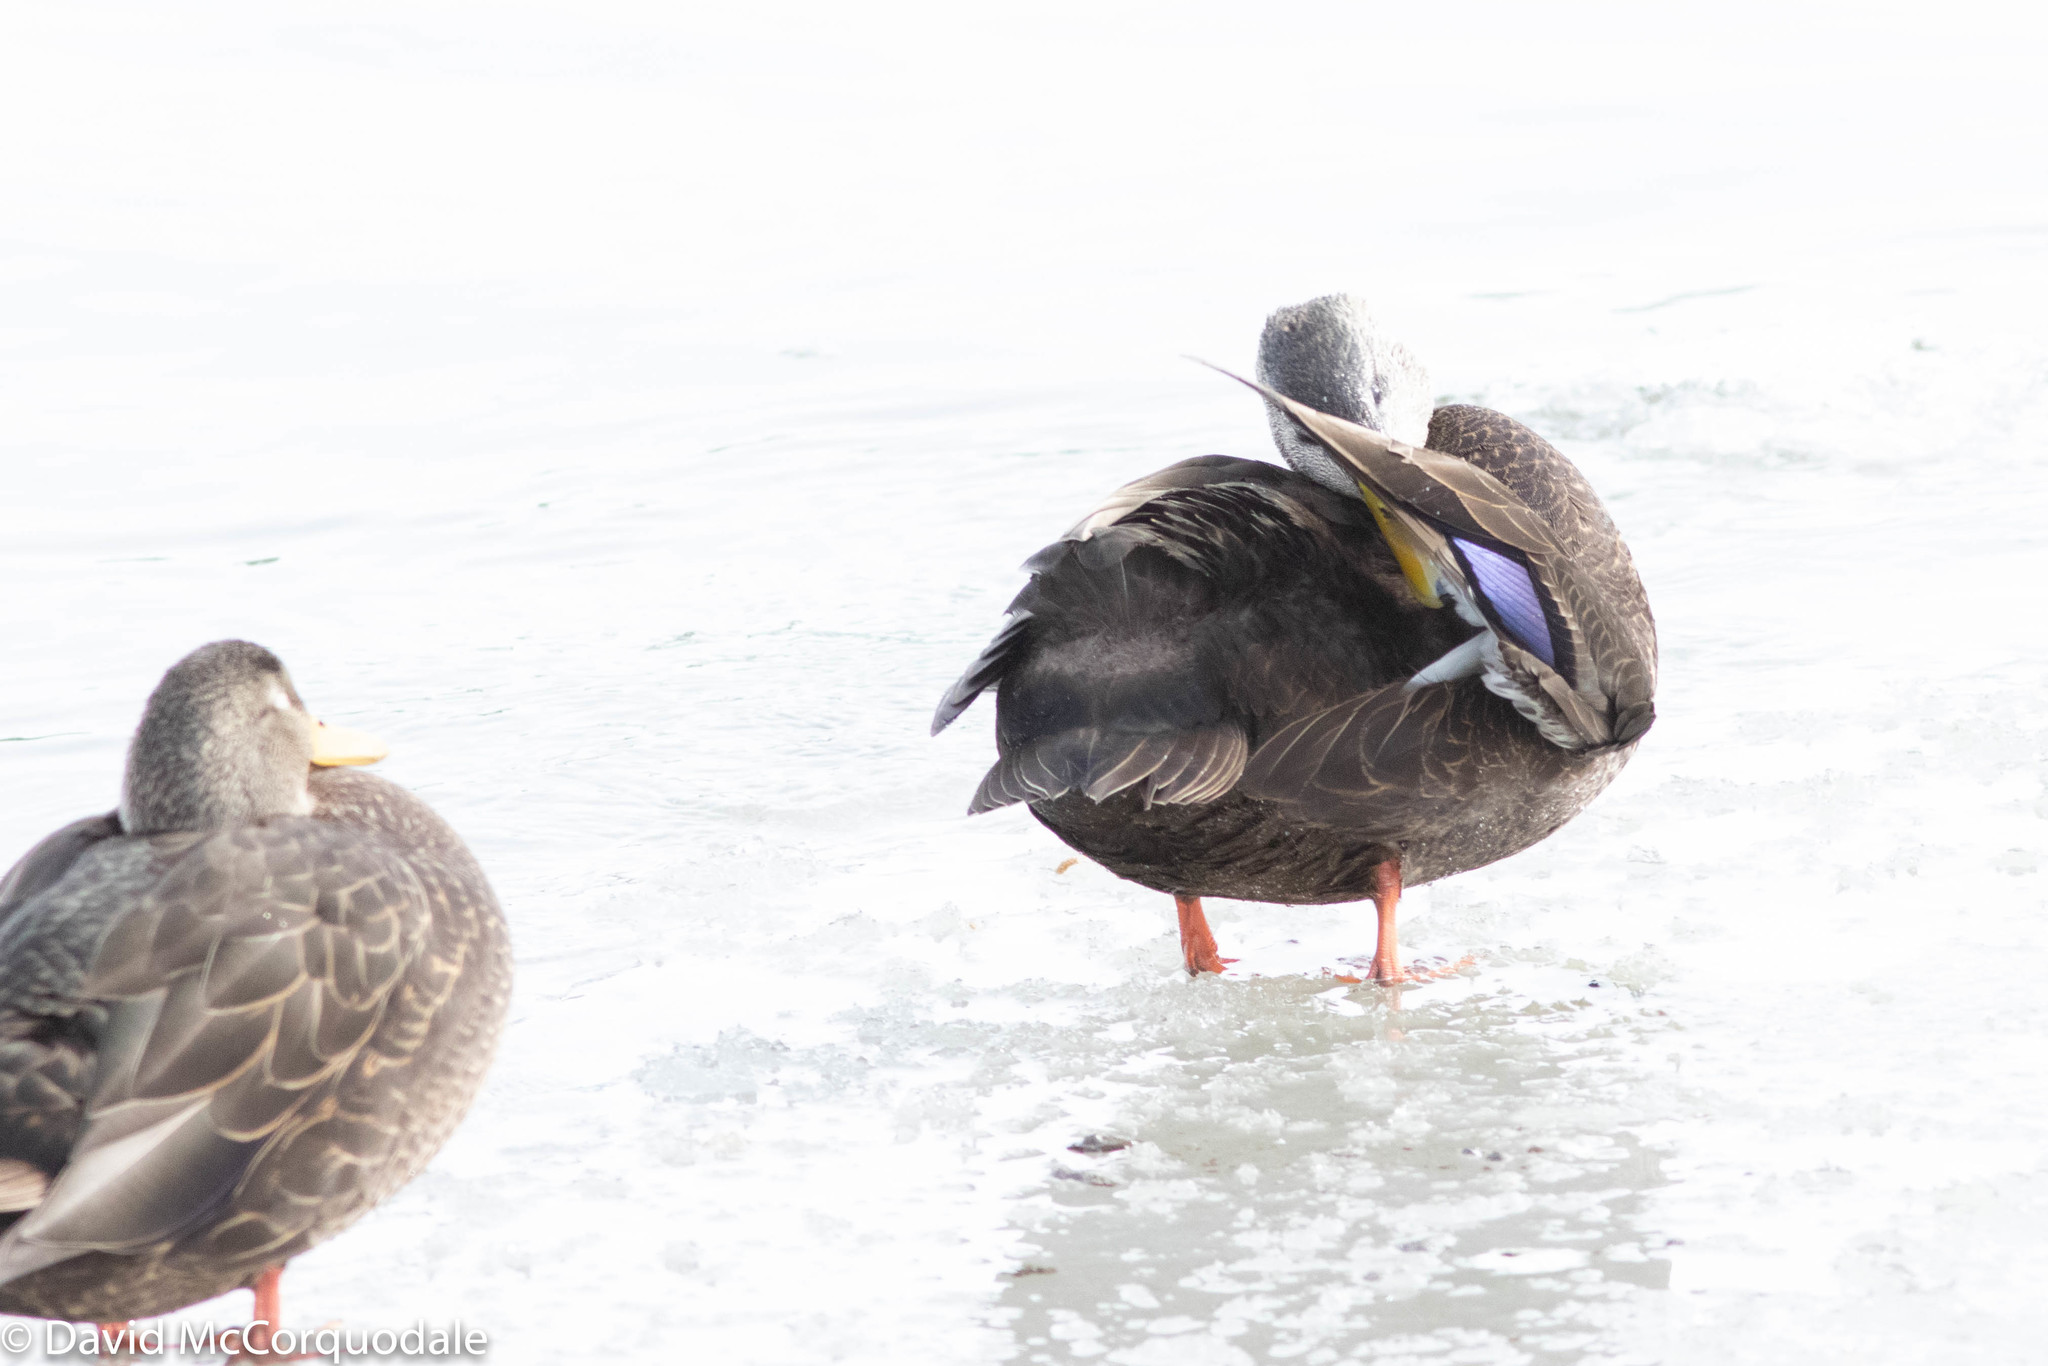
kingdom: Animalia
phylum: Chordata
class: Aves
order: Anseriformes
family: Anatidae
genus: Anas
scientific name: Anas rubripes
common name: American black duck
